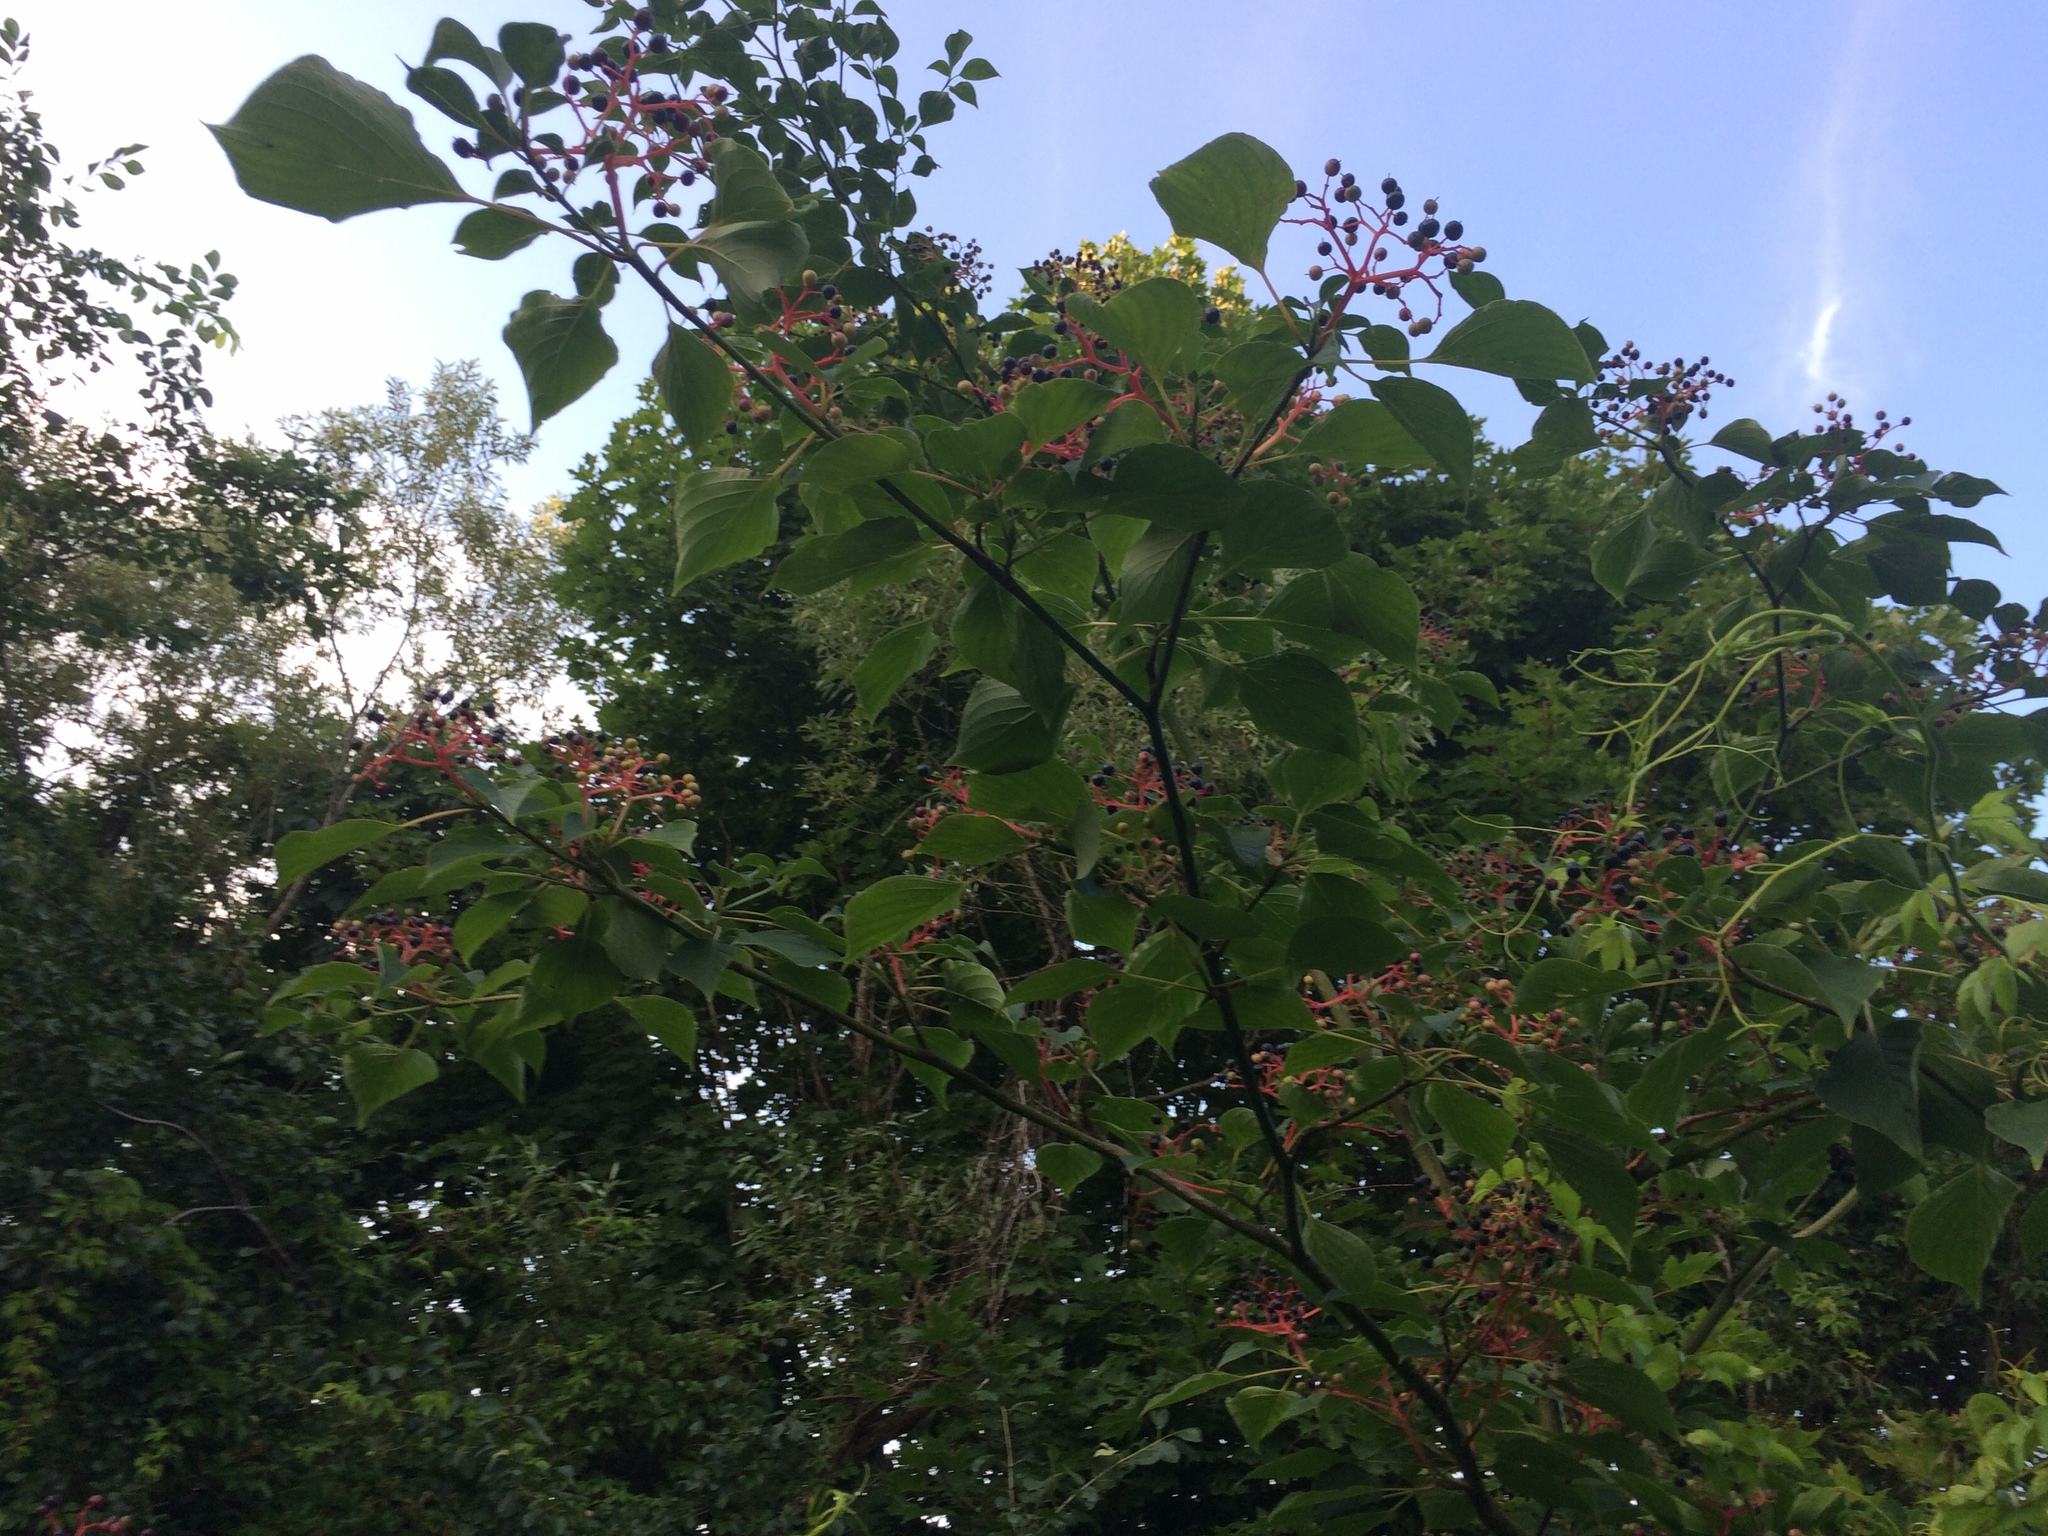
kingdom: Plantae
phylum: Tracheophyta
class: Magnoliopsida
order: Cornales
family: Cornaceae
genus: Cornus
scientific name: Cornus alternifolia
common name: Pagoda dogwood
